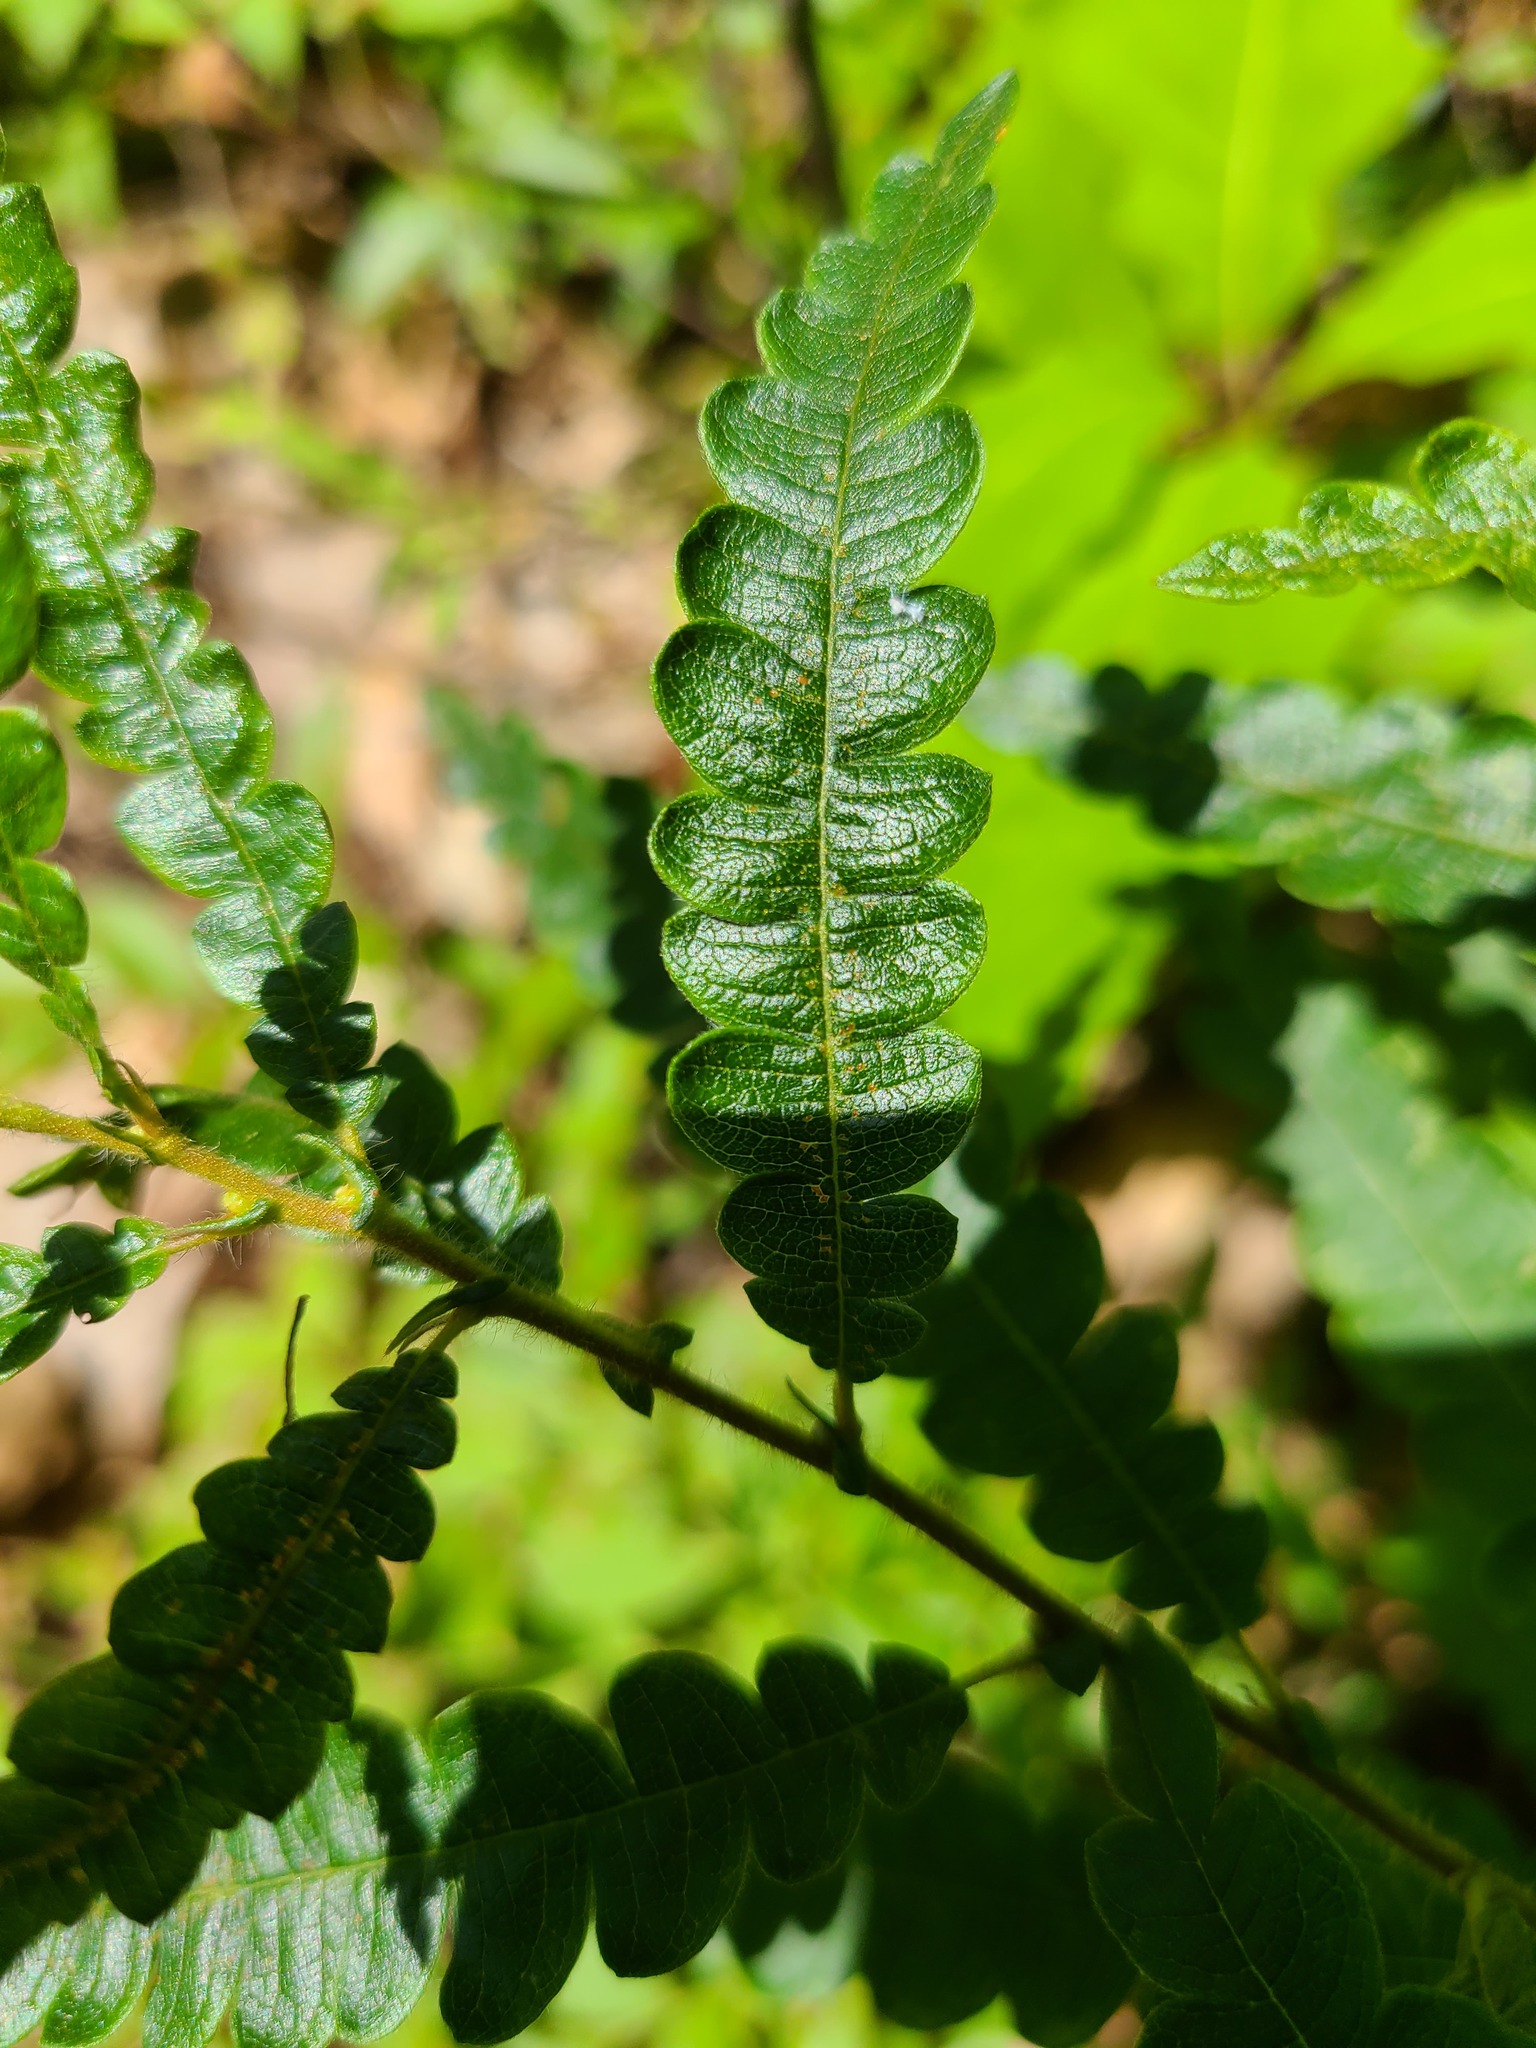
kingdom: Plantae
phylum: Tracheophyta
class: Magnoliopsida
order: Fagales
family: Myricaceae
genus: Comptonia
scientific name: Comptonia peregrina
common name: Sweet-fern
